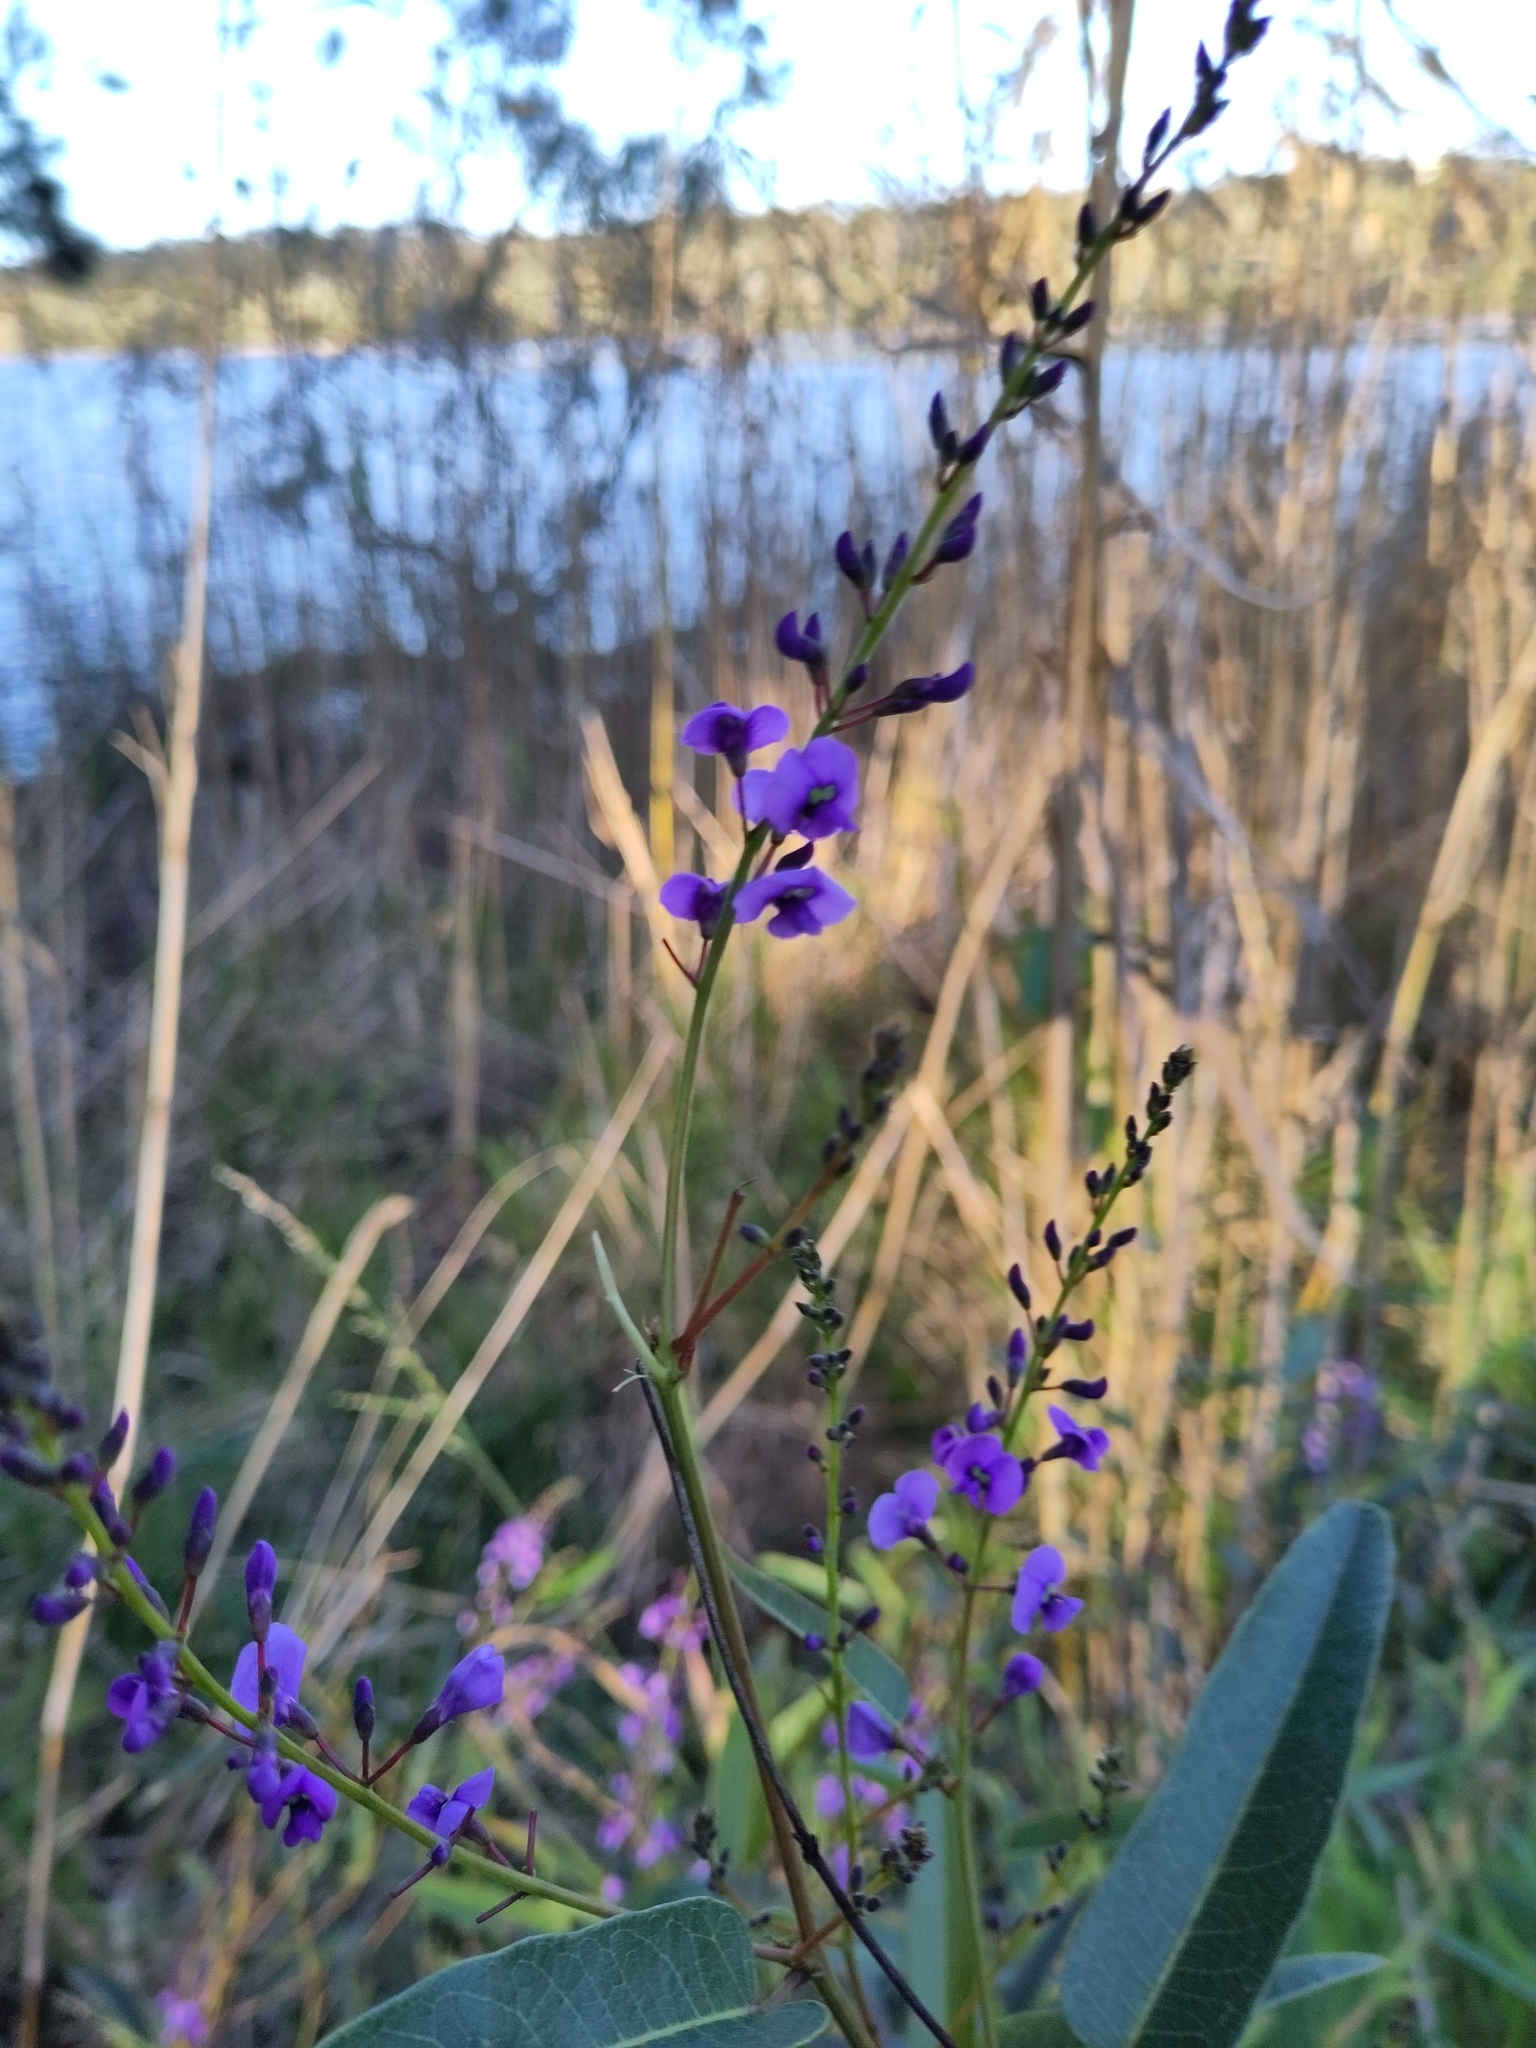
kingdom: Plantae
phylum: Tracheophyta
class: Magnoliopsida
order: Fabales
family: Fabaceae
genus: Hardenbergia
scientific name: Hardenbergia violacea
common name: Coral-pea
